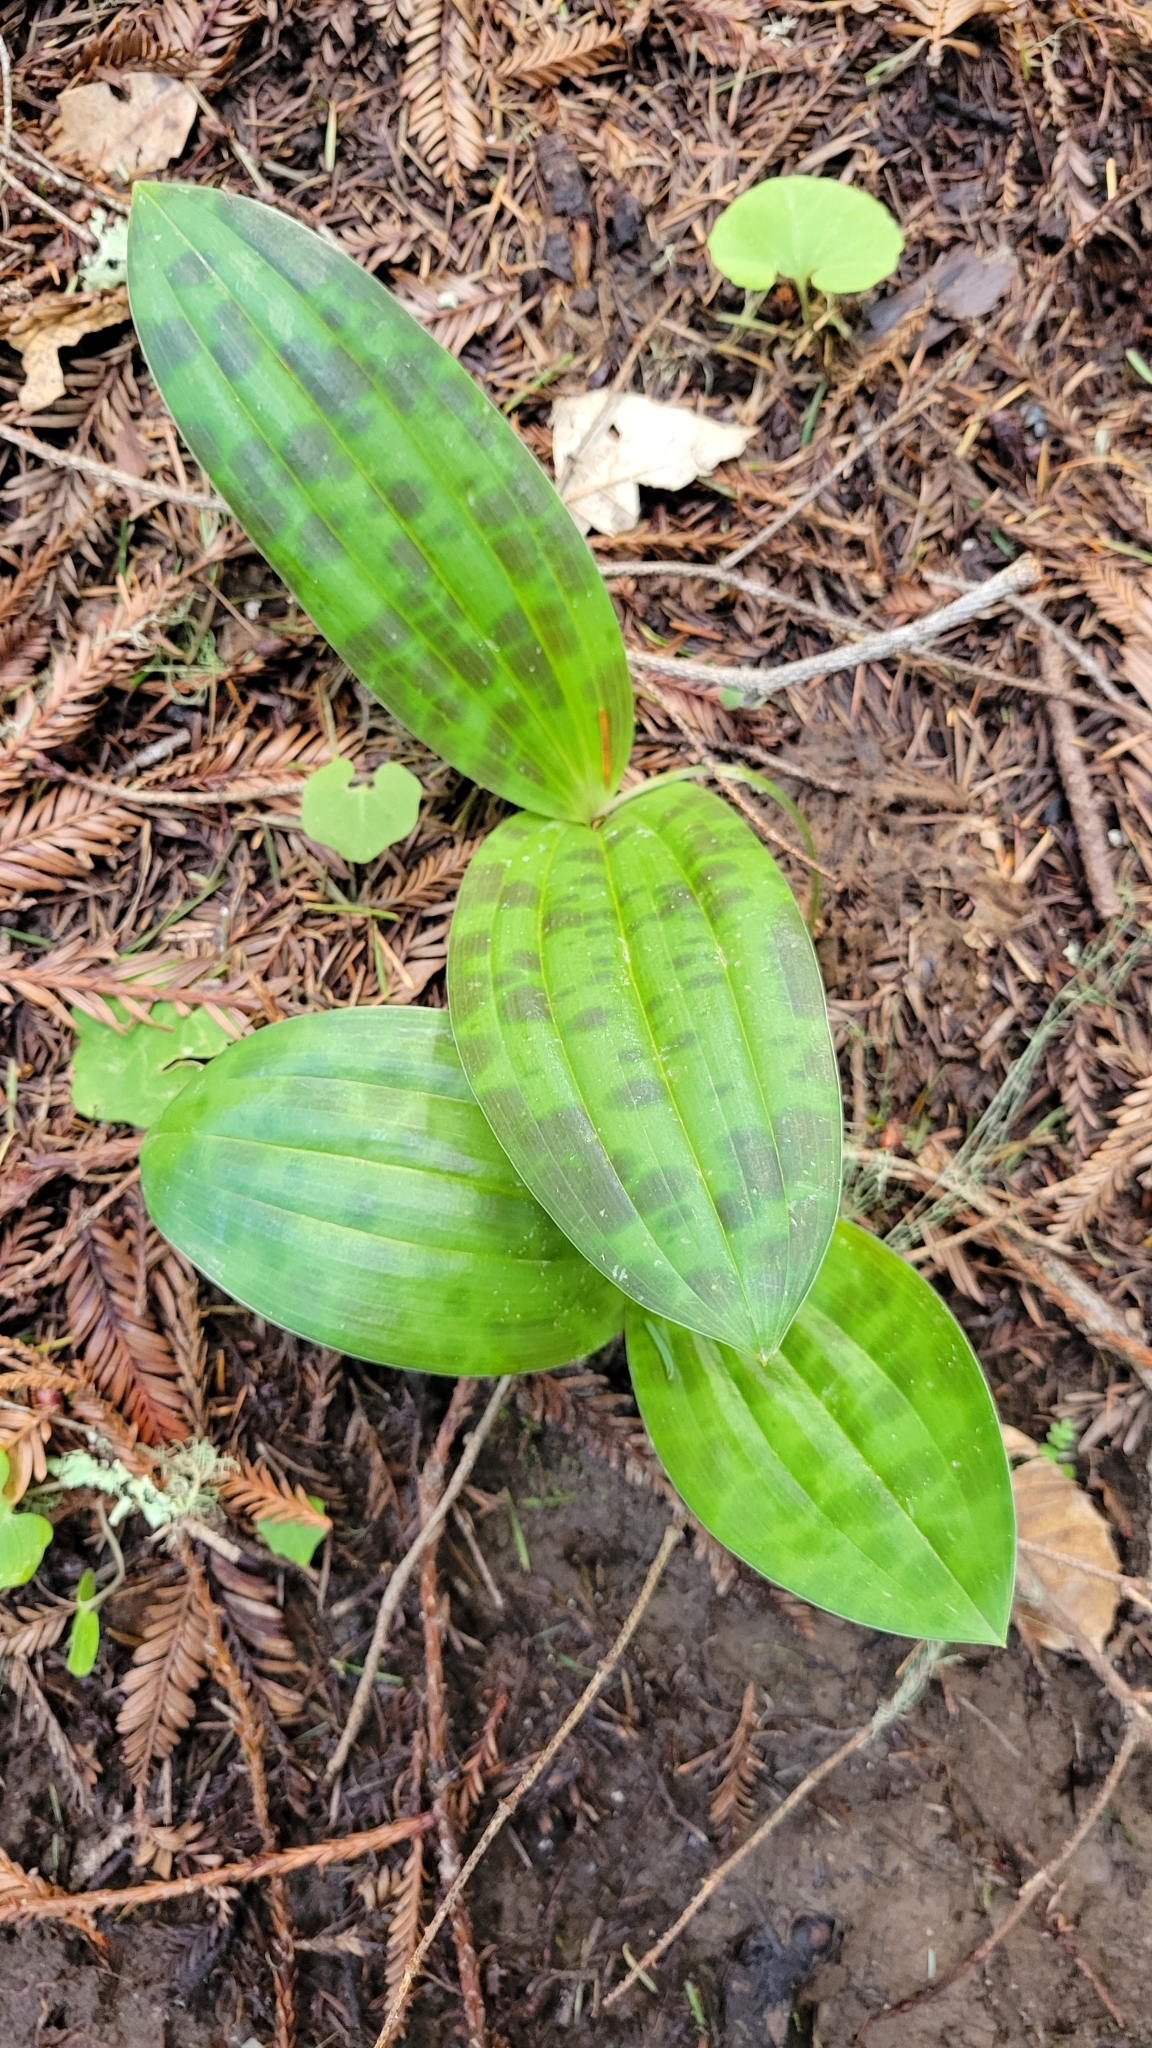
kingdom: Plantae
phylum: Tracheophyta
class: Liliopsida
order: Liliales
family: Liliaceae
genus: Scoliopus
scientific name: Scoliopus bigelovii
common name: Foetid adder's-tongue
